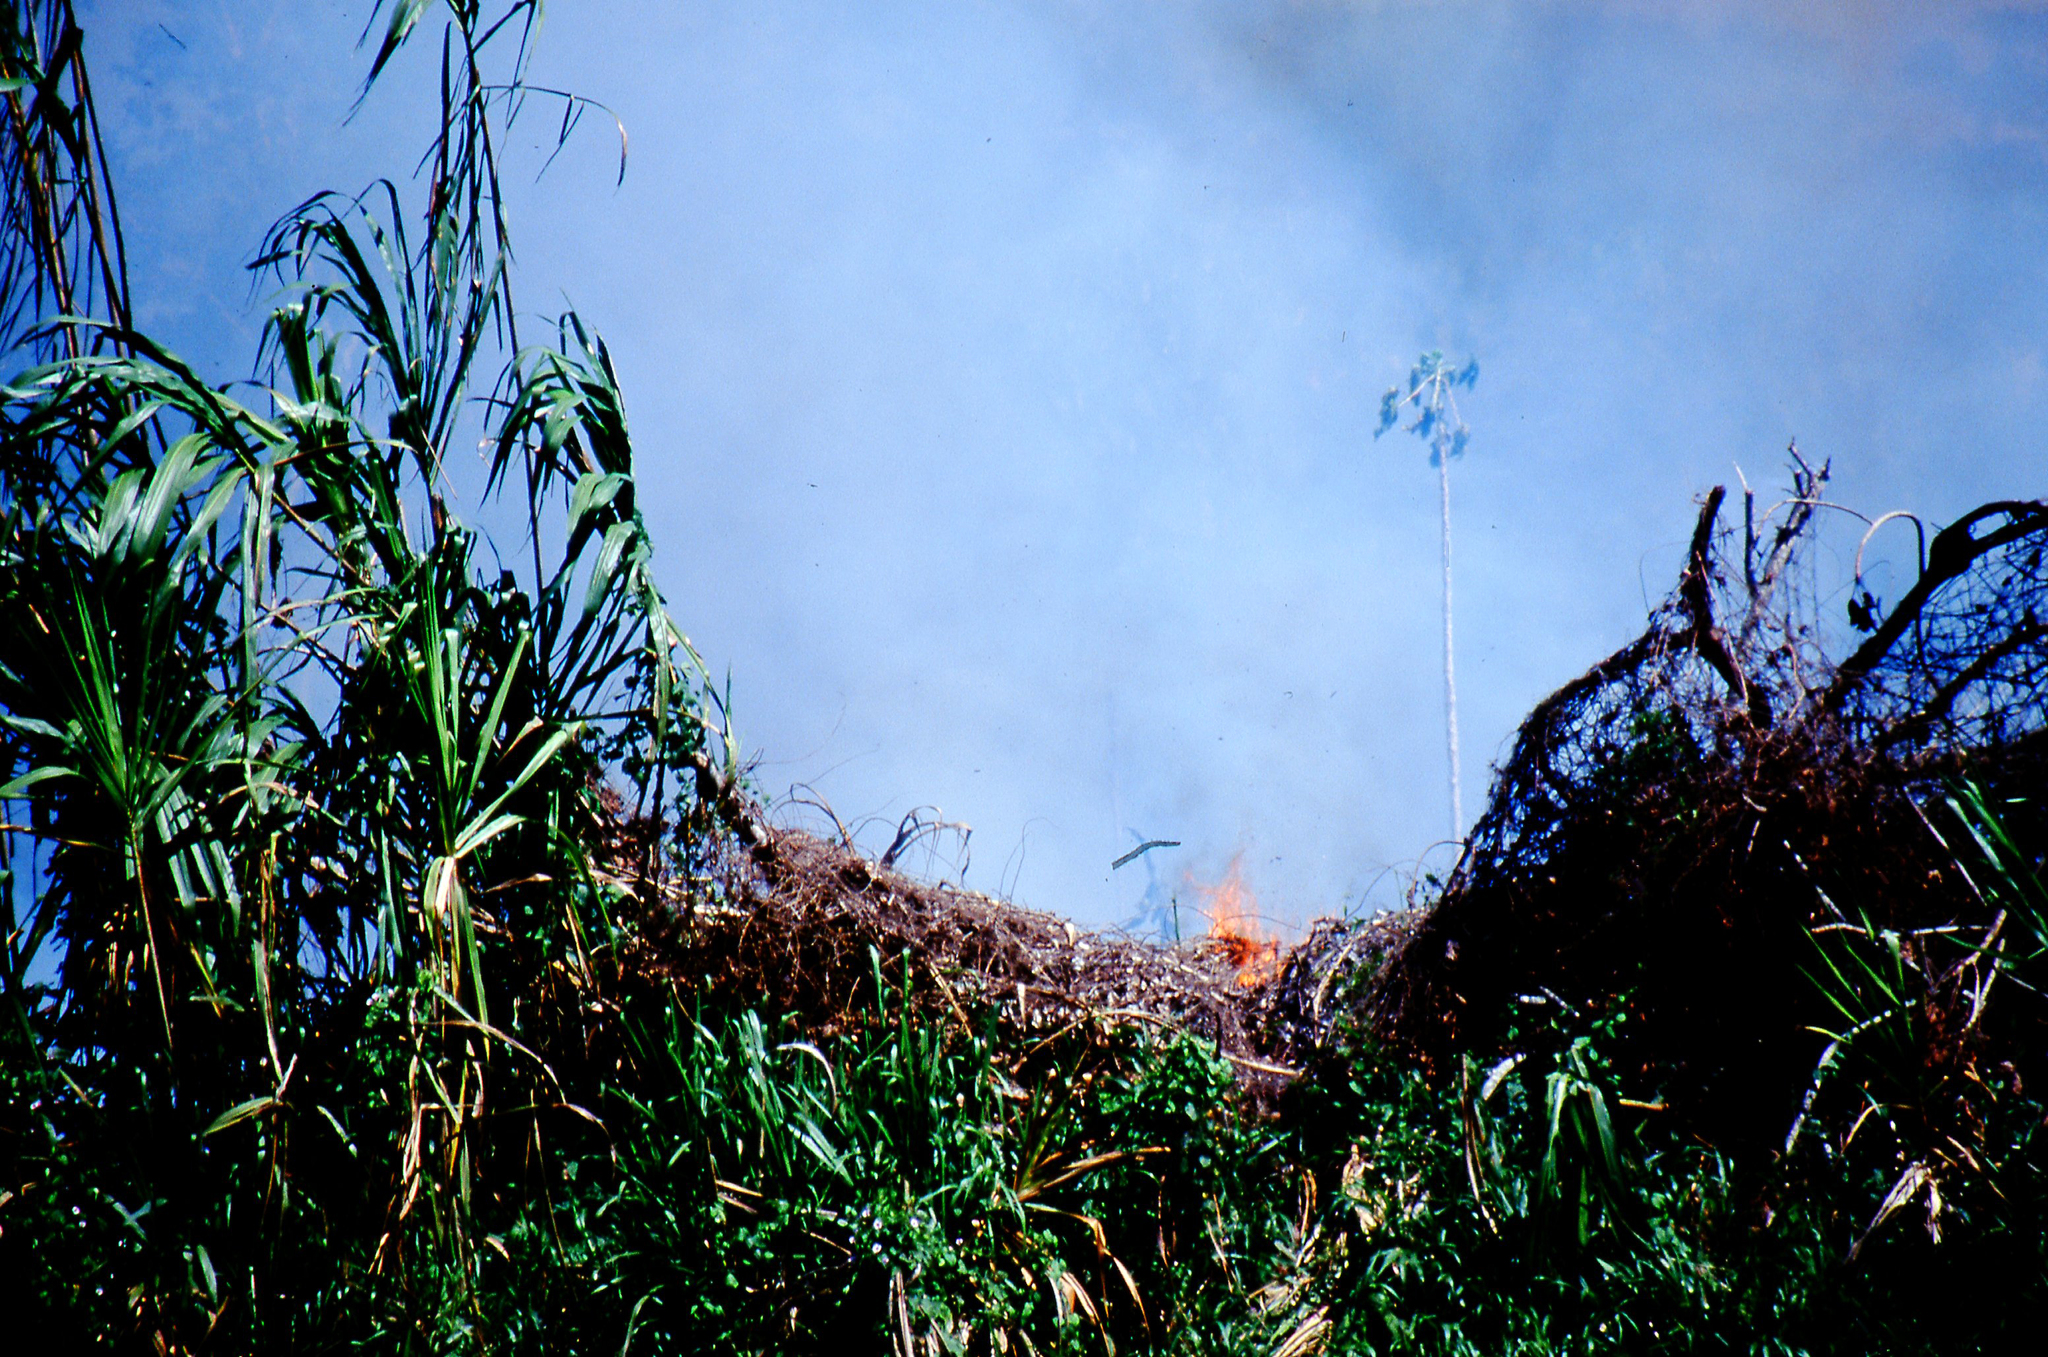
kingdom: Plantae
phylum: Tracheophyta
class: Liliopsida
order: Poales
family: Poaceae
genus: Gynerium
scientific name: Gynerium sagittatum
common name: Wild cane
